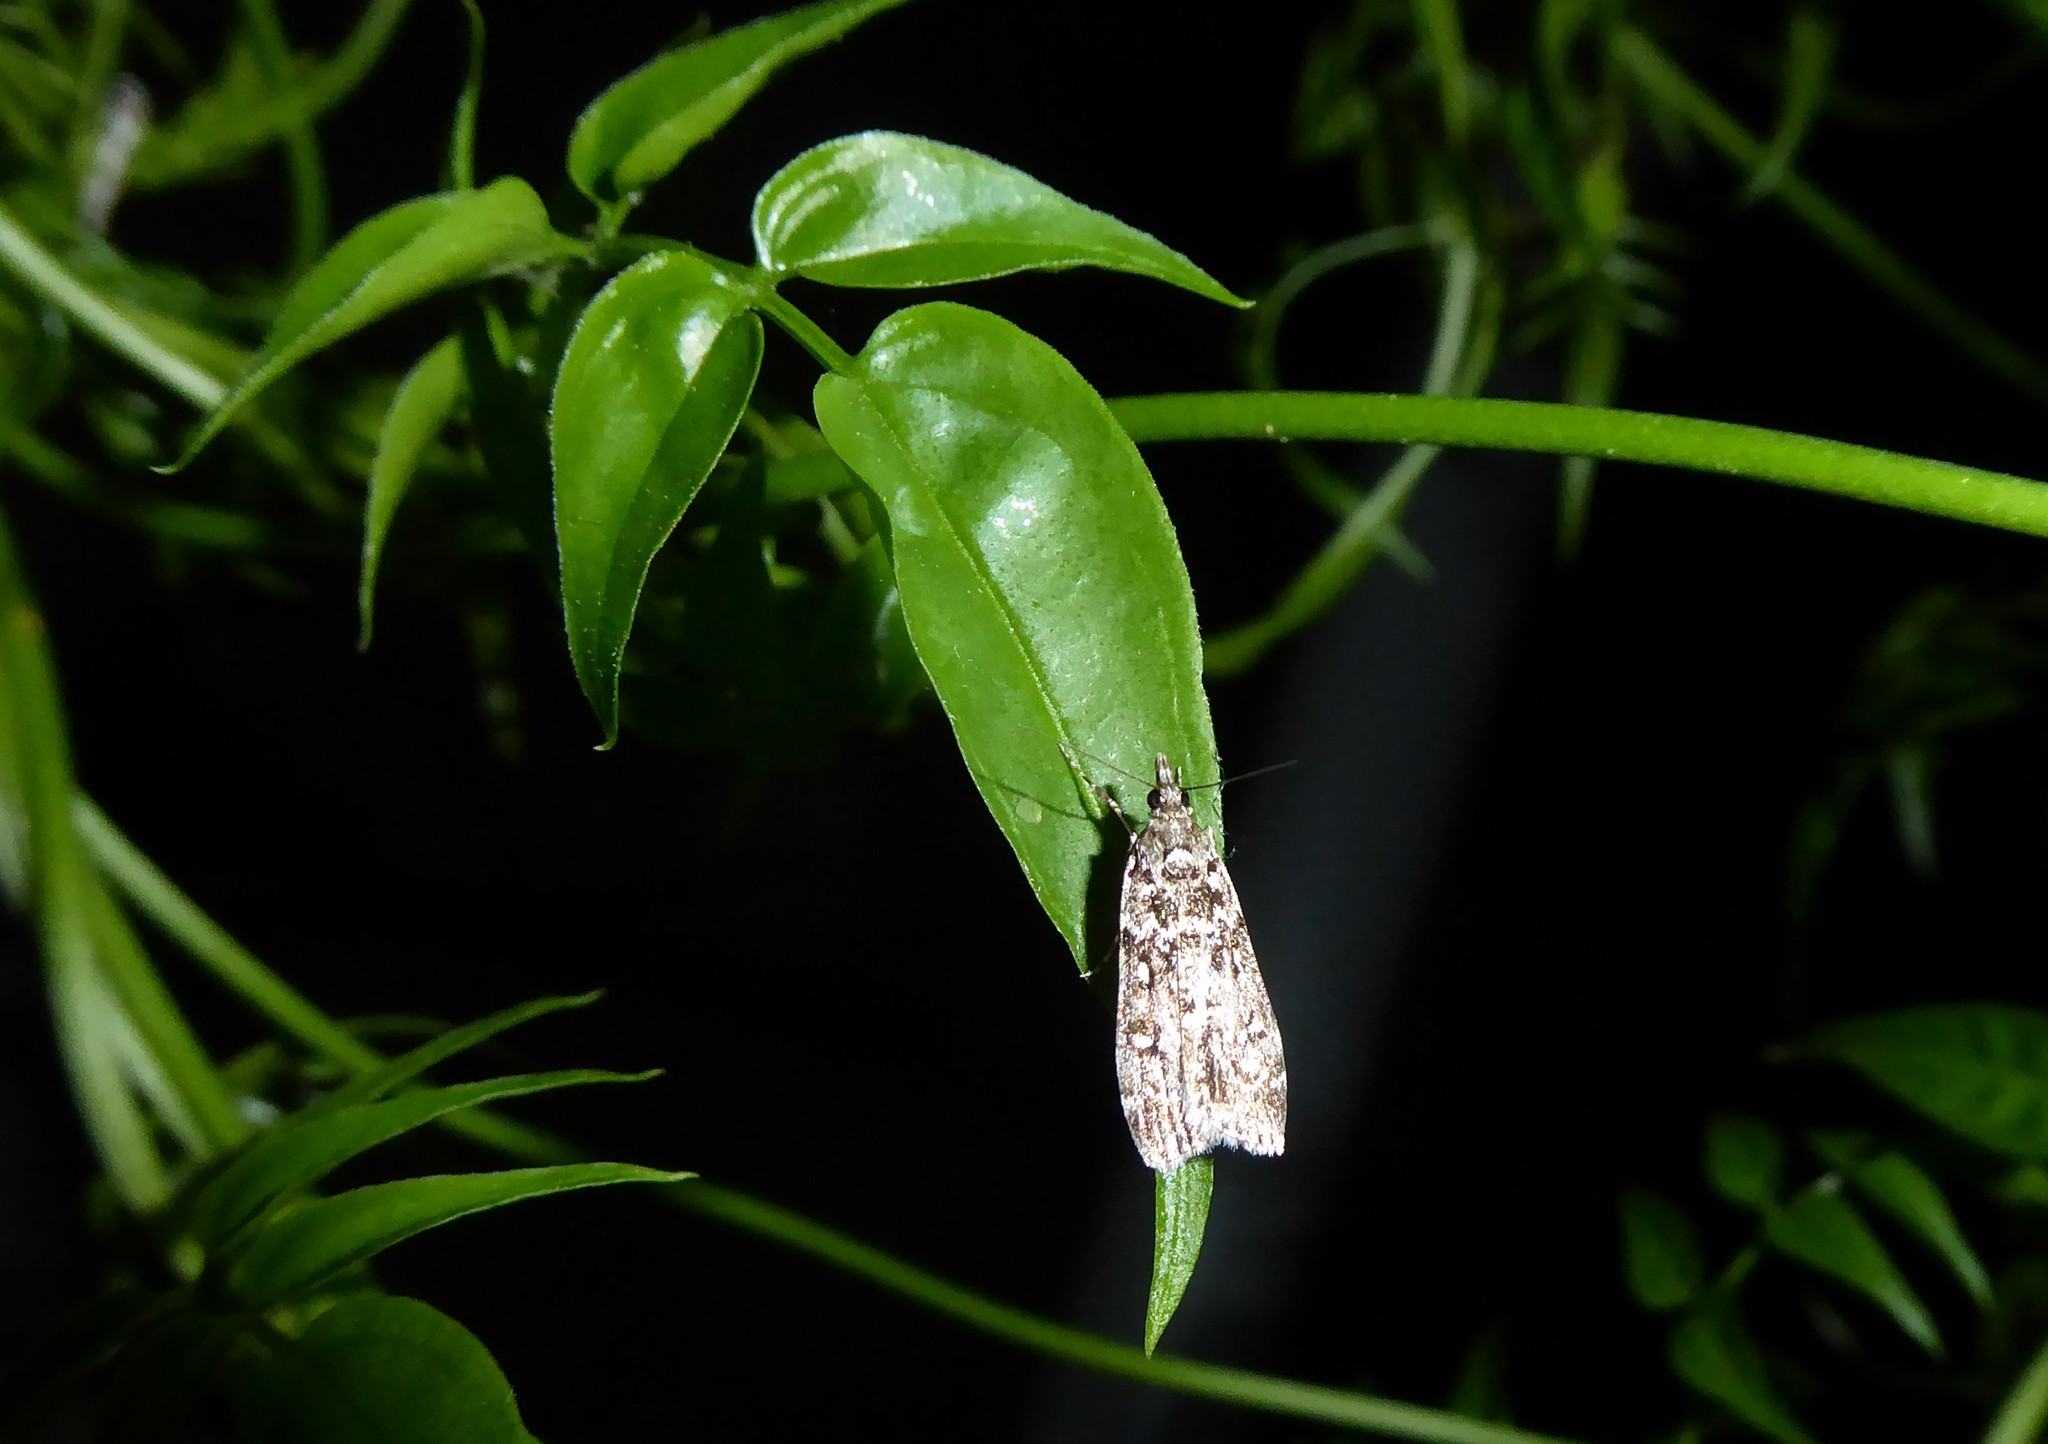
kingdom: Animalia
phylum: Arthropoda
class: Insecta
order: Lepidoptera
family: Crambidae
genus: Eudonia
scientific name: Eudonia philerga
